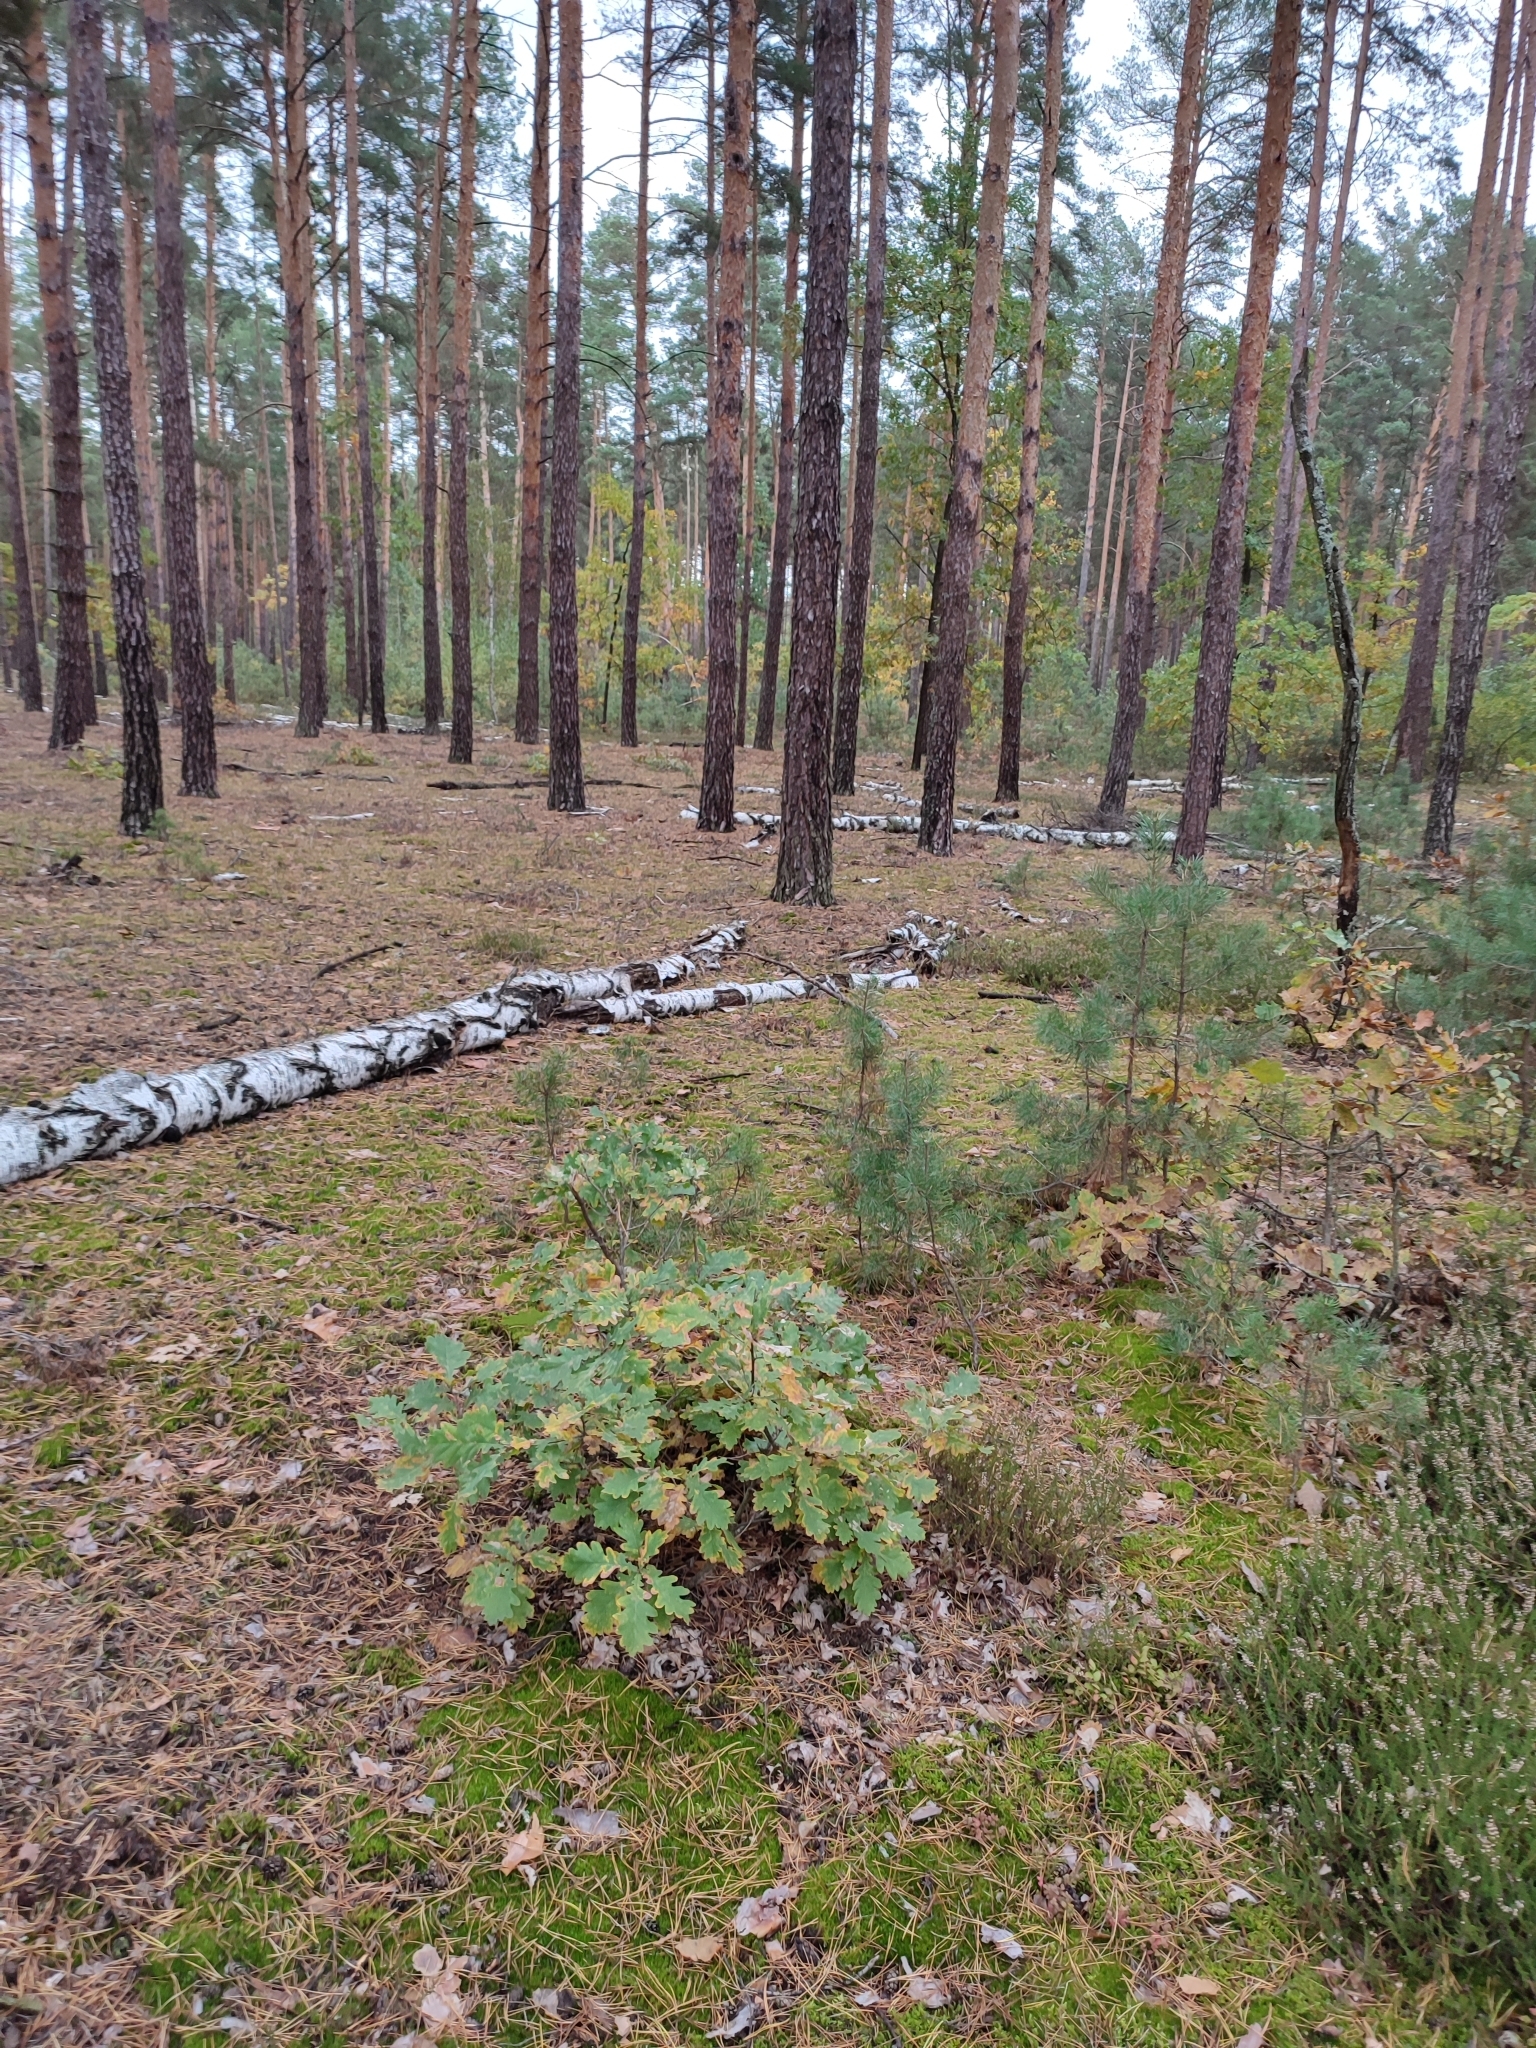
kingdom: Plantae
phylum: Tracheophyta
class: Magnoliopsida
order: Fagales
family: Fagaceae
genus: Quercus
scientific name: Quercus robur
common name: Pedunculate oak
